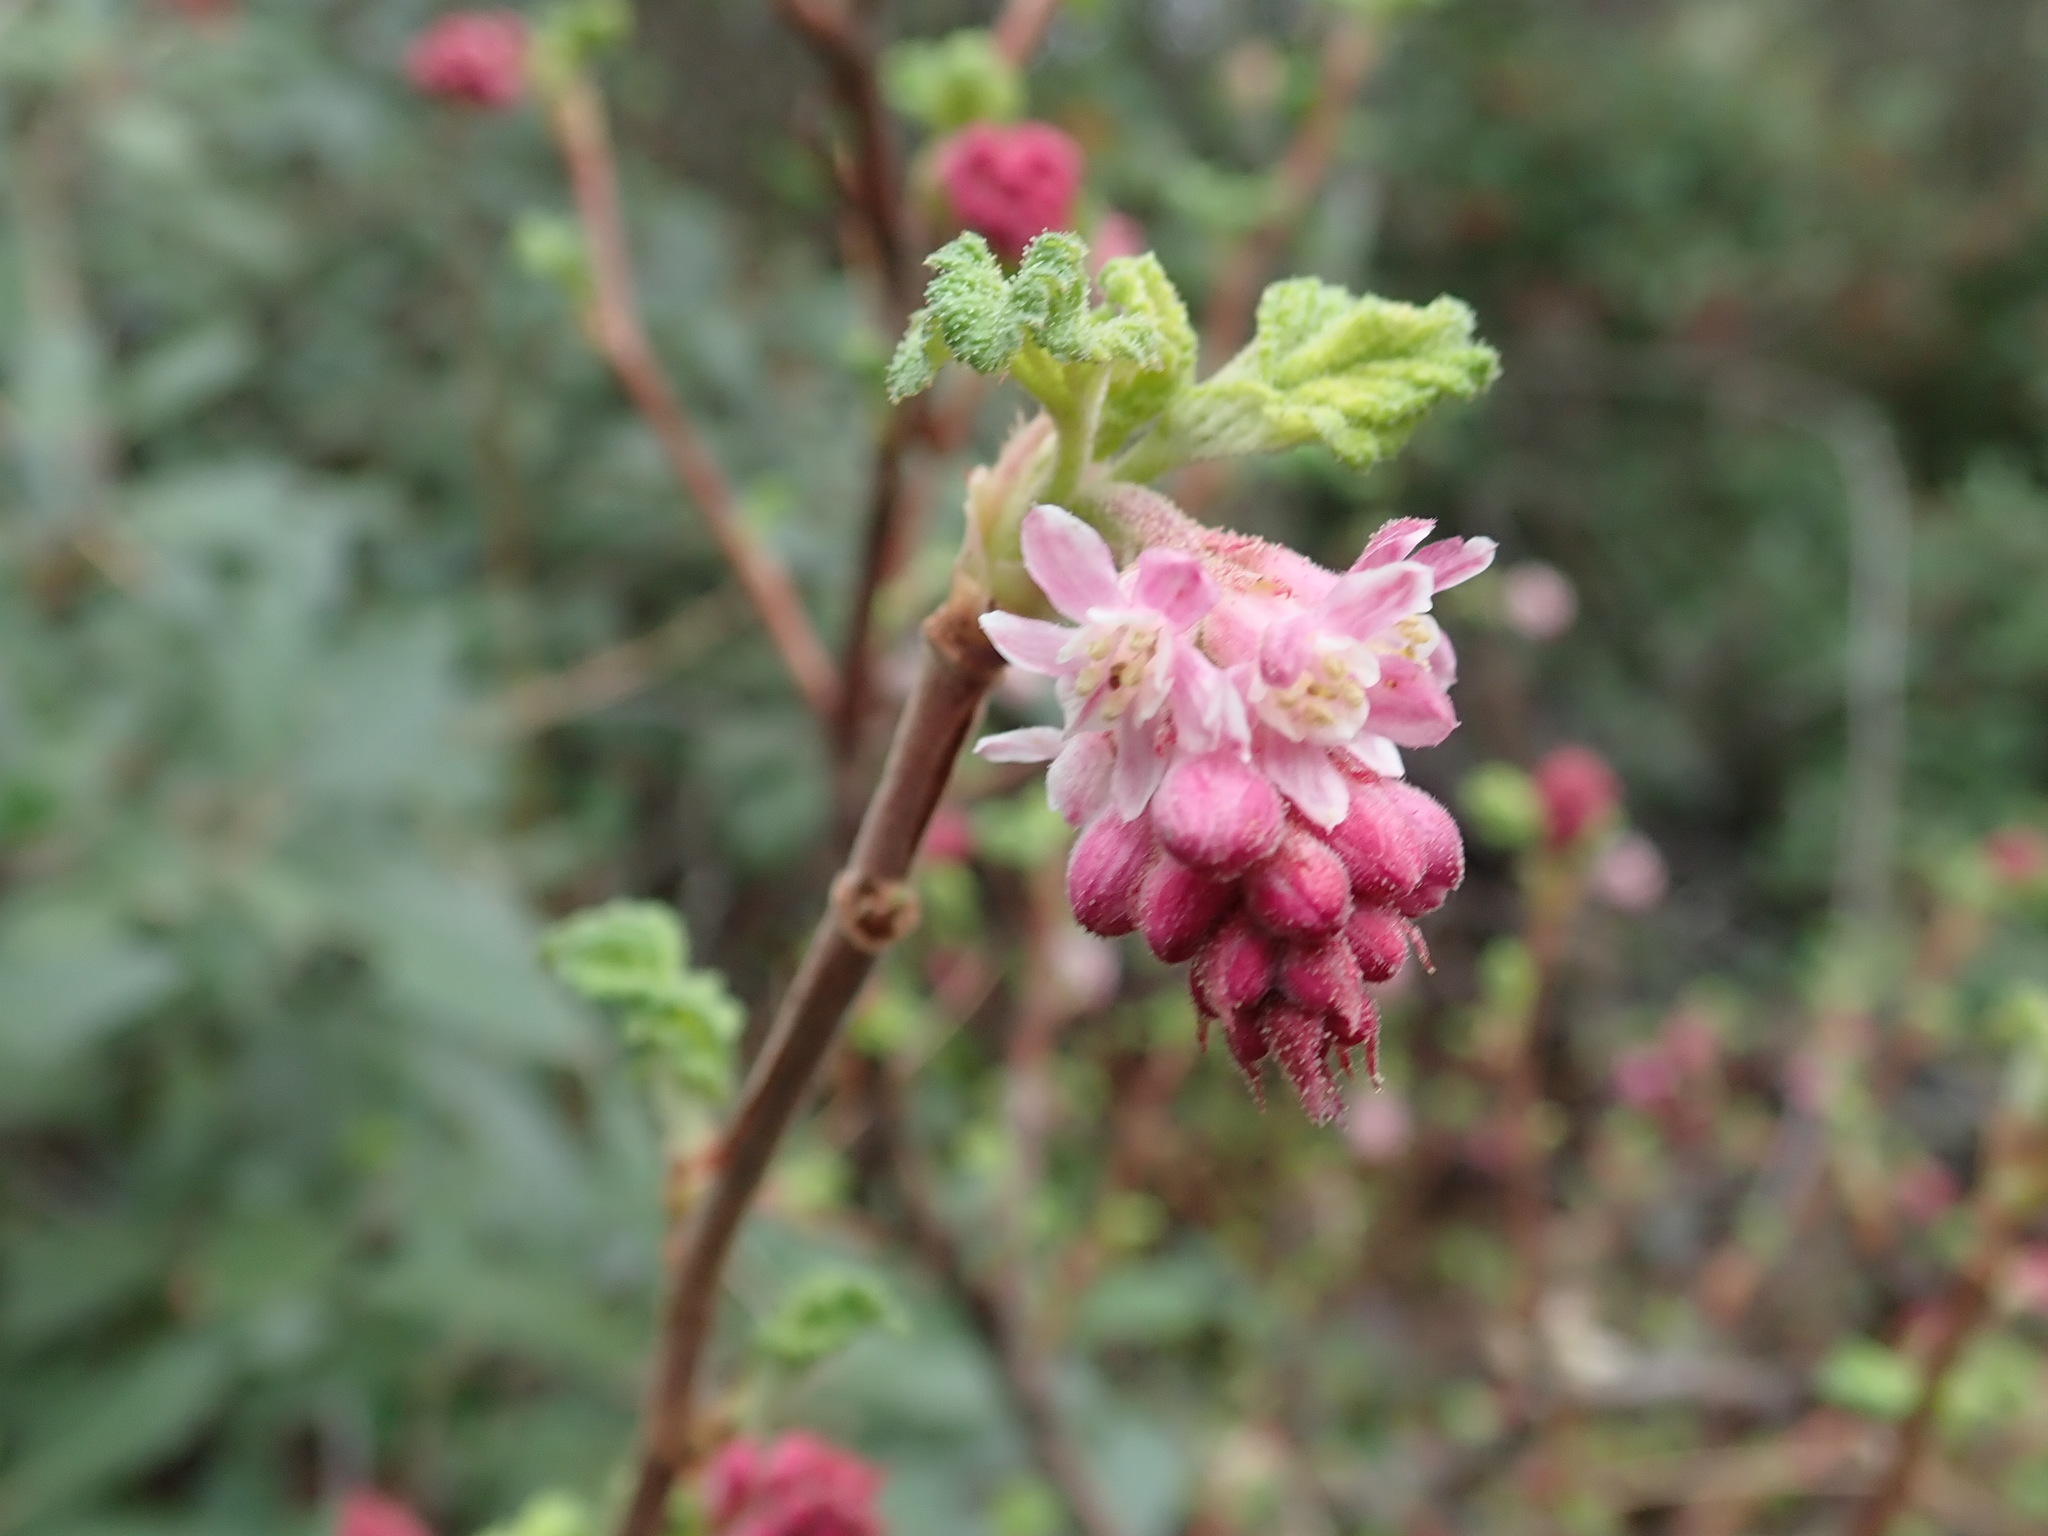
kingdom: Plantae
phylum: Tracheophyta
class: Magnoliopsida
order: Saxifragales
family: Grossulariaceae
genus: Ribes
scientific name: Ribes malvaceum
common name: Chaparral currant
